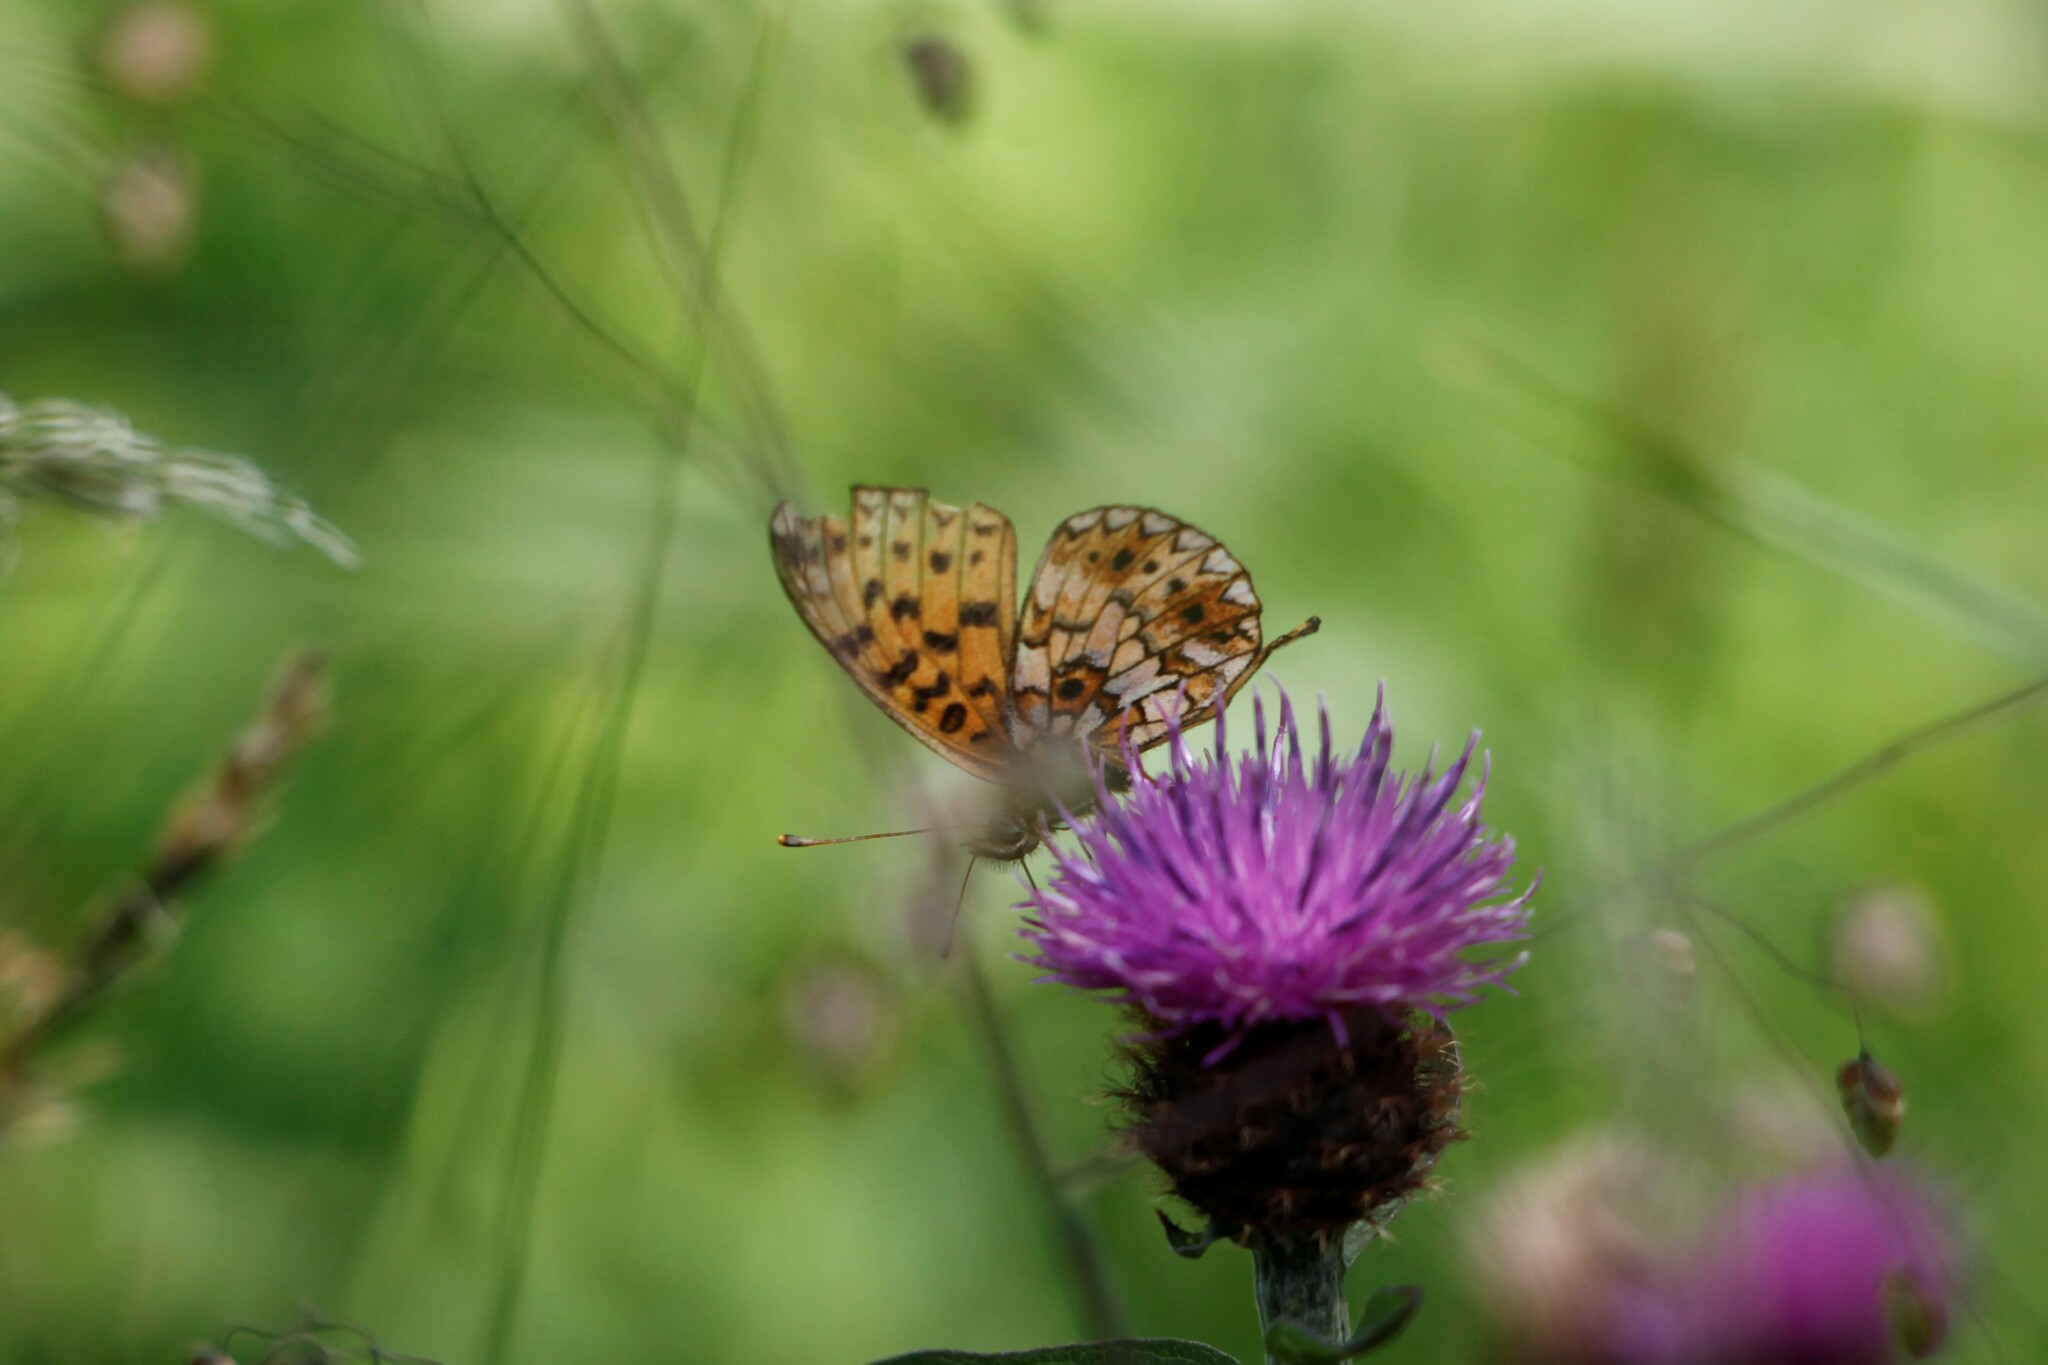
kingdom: Animalia
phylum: Arthropoda
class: Insecta
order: Lepidoptera
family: Nymphalidae
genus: Boloria
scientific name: Boloria selene
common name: Small pearl-bordered fritillary
